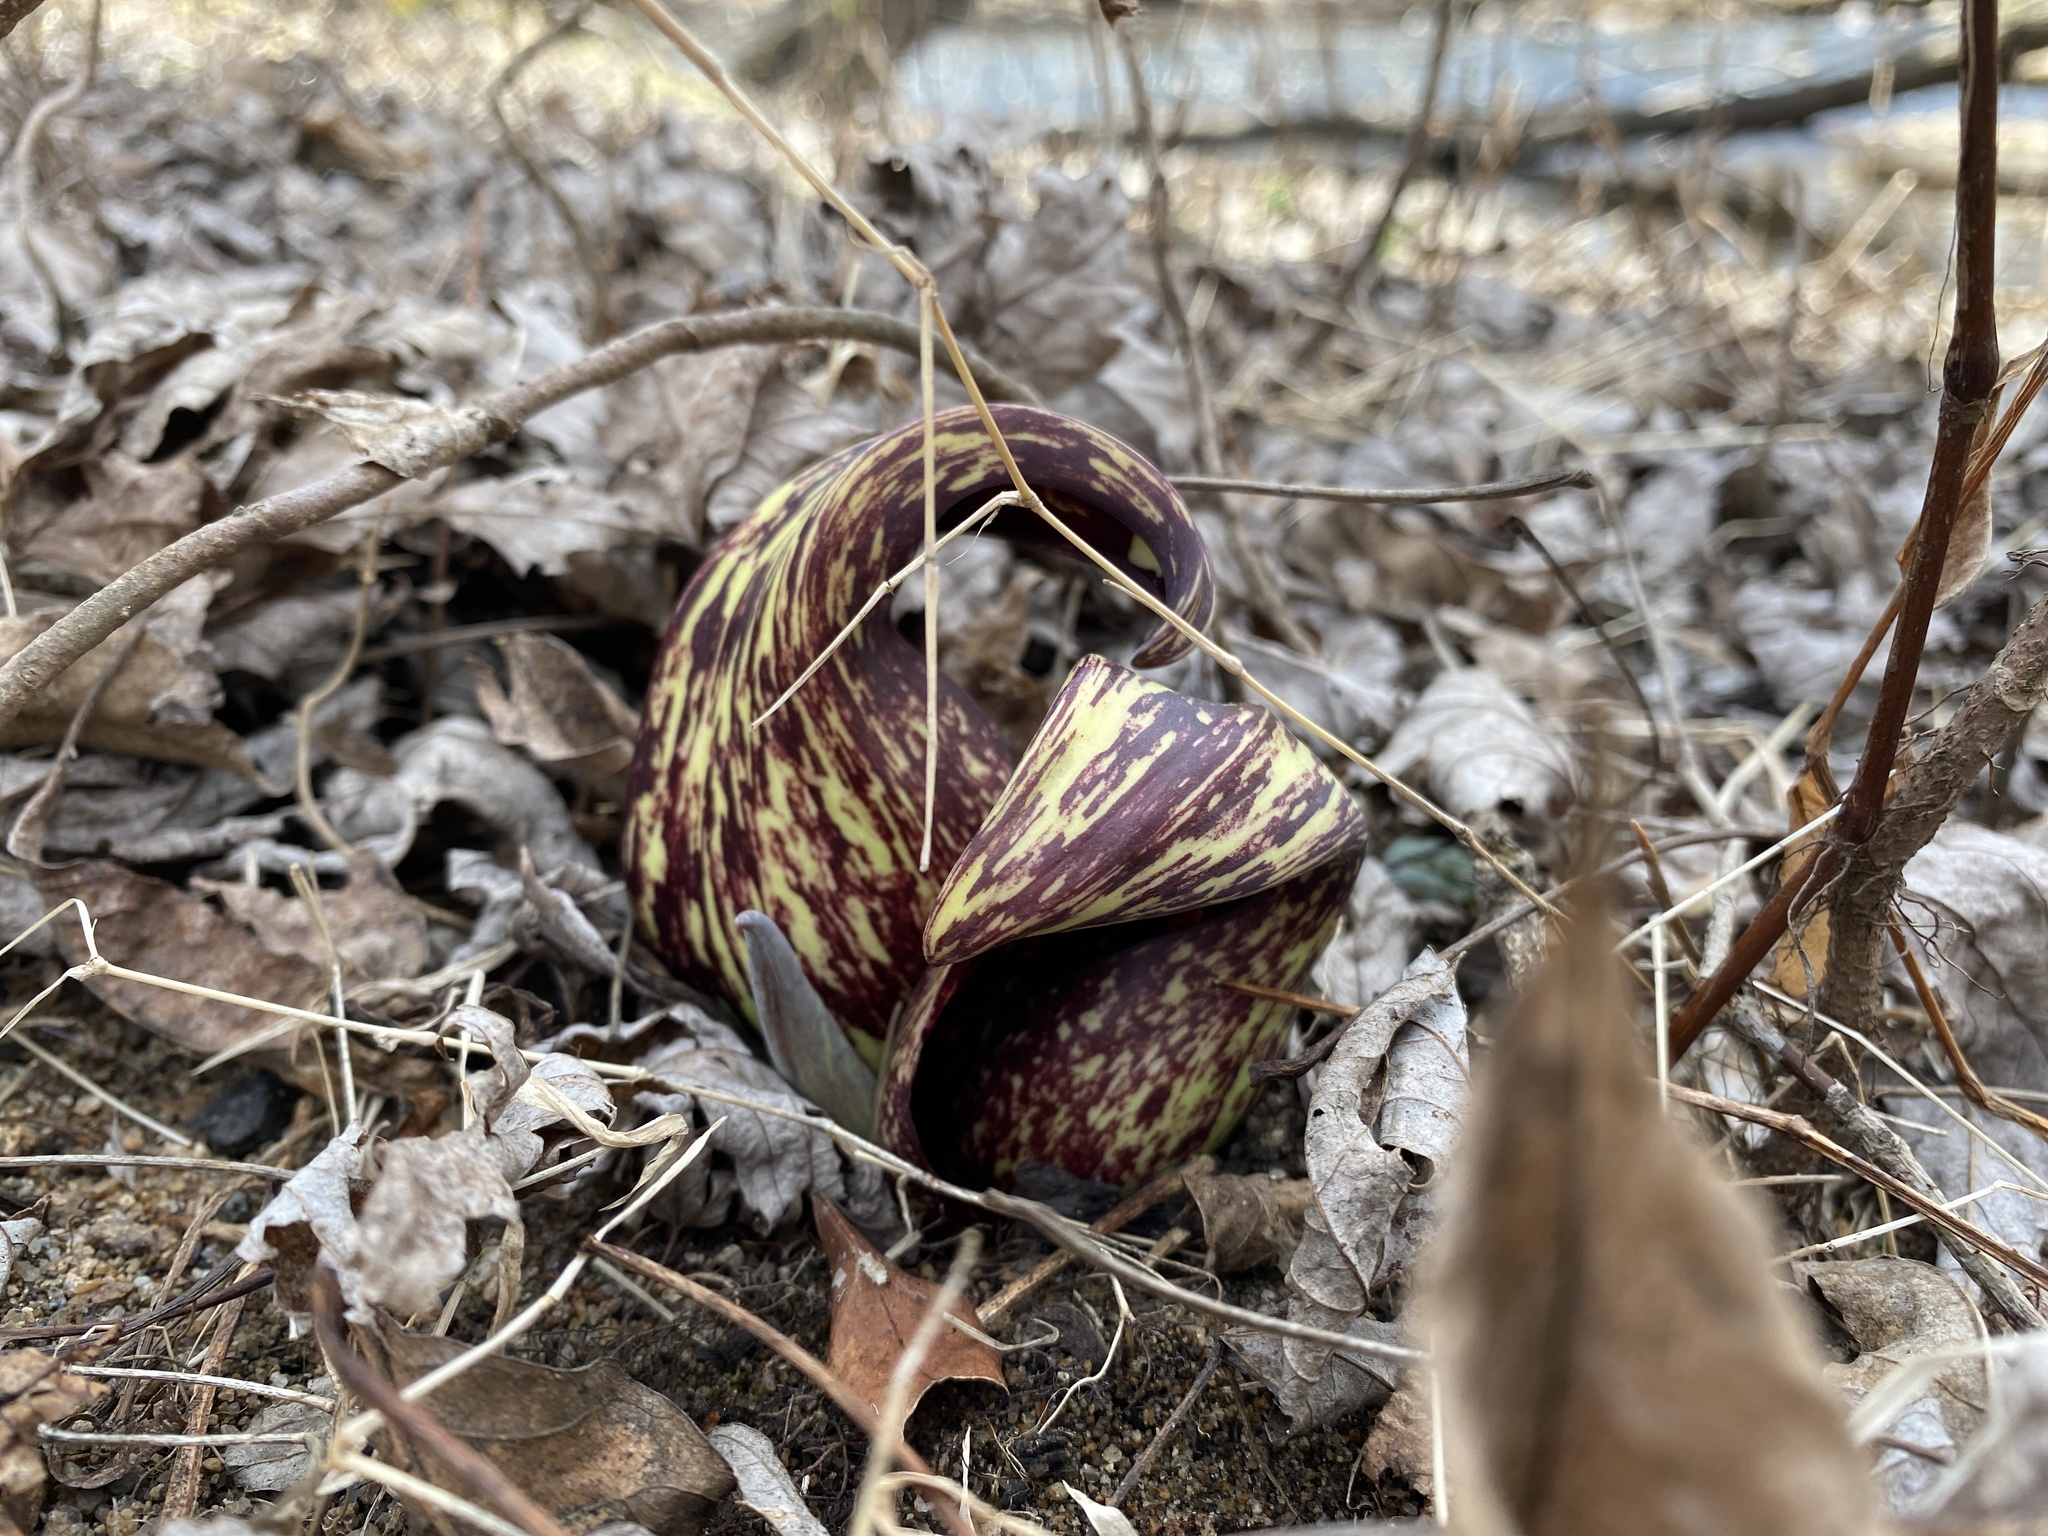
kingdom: Plantae
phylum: Tracheophyta
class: Liliopsida
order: Alismatales
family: Araceae
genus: Symplocarpus
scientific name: Symplocarpus foetidus
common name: Eastern skunk cabbage
